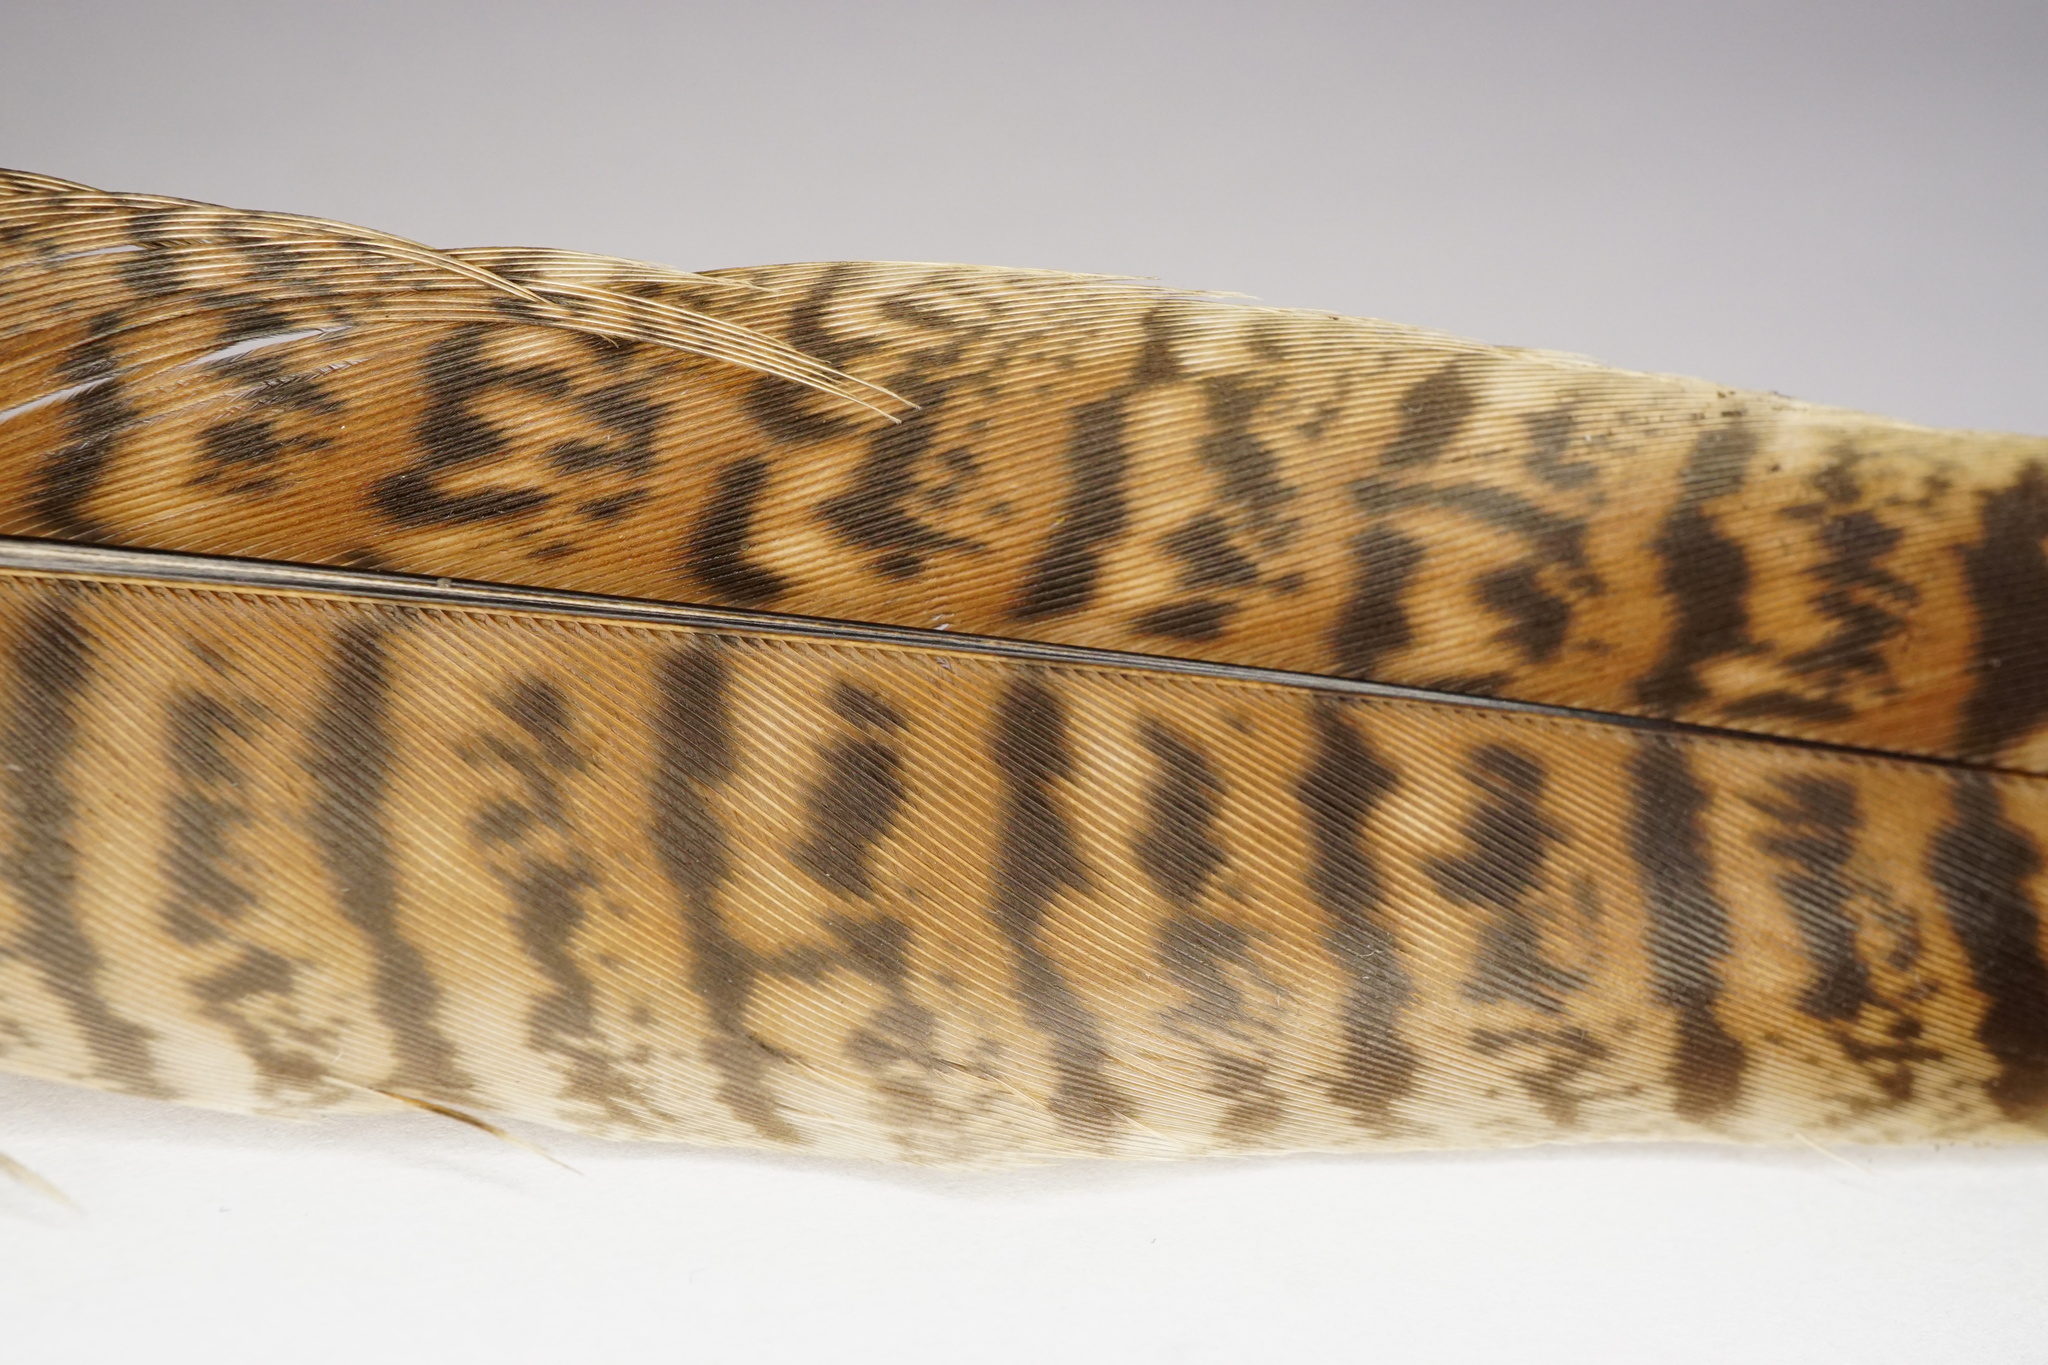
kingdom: Animalia
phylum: Chordata
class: Aves
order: Galliformes
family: Phasianidae
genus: Phasianus
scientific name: Phasianus colchicus
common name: Common pheasant
